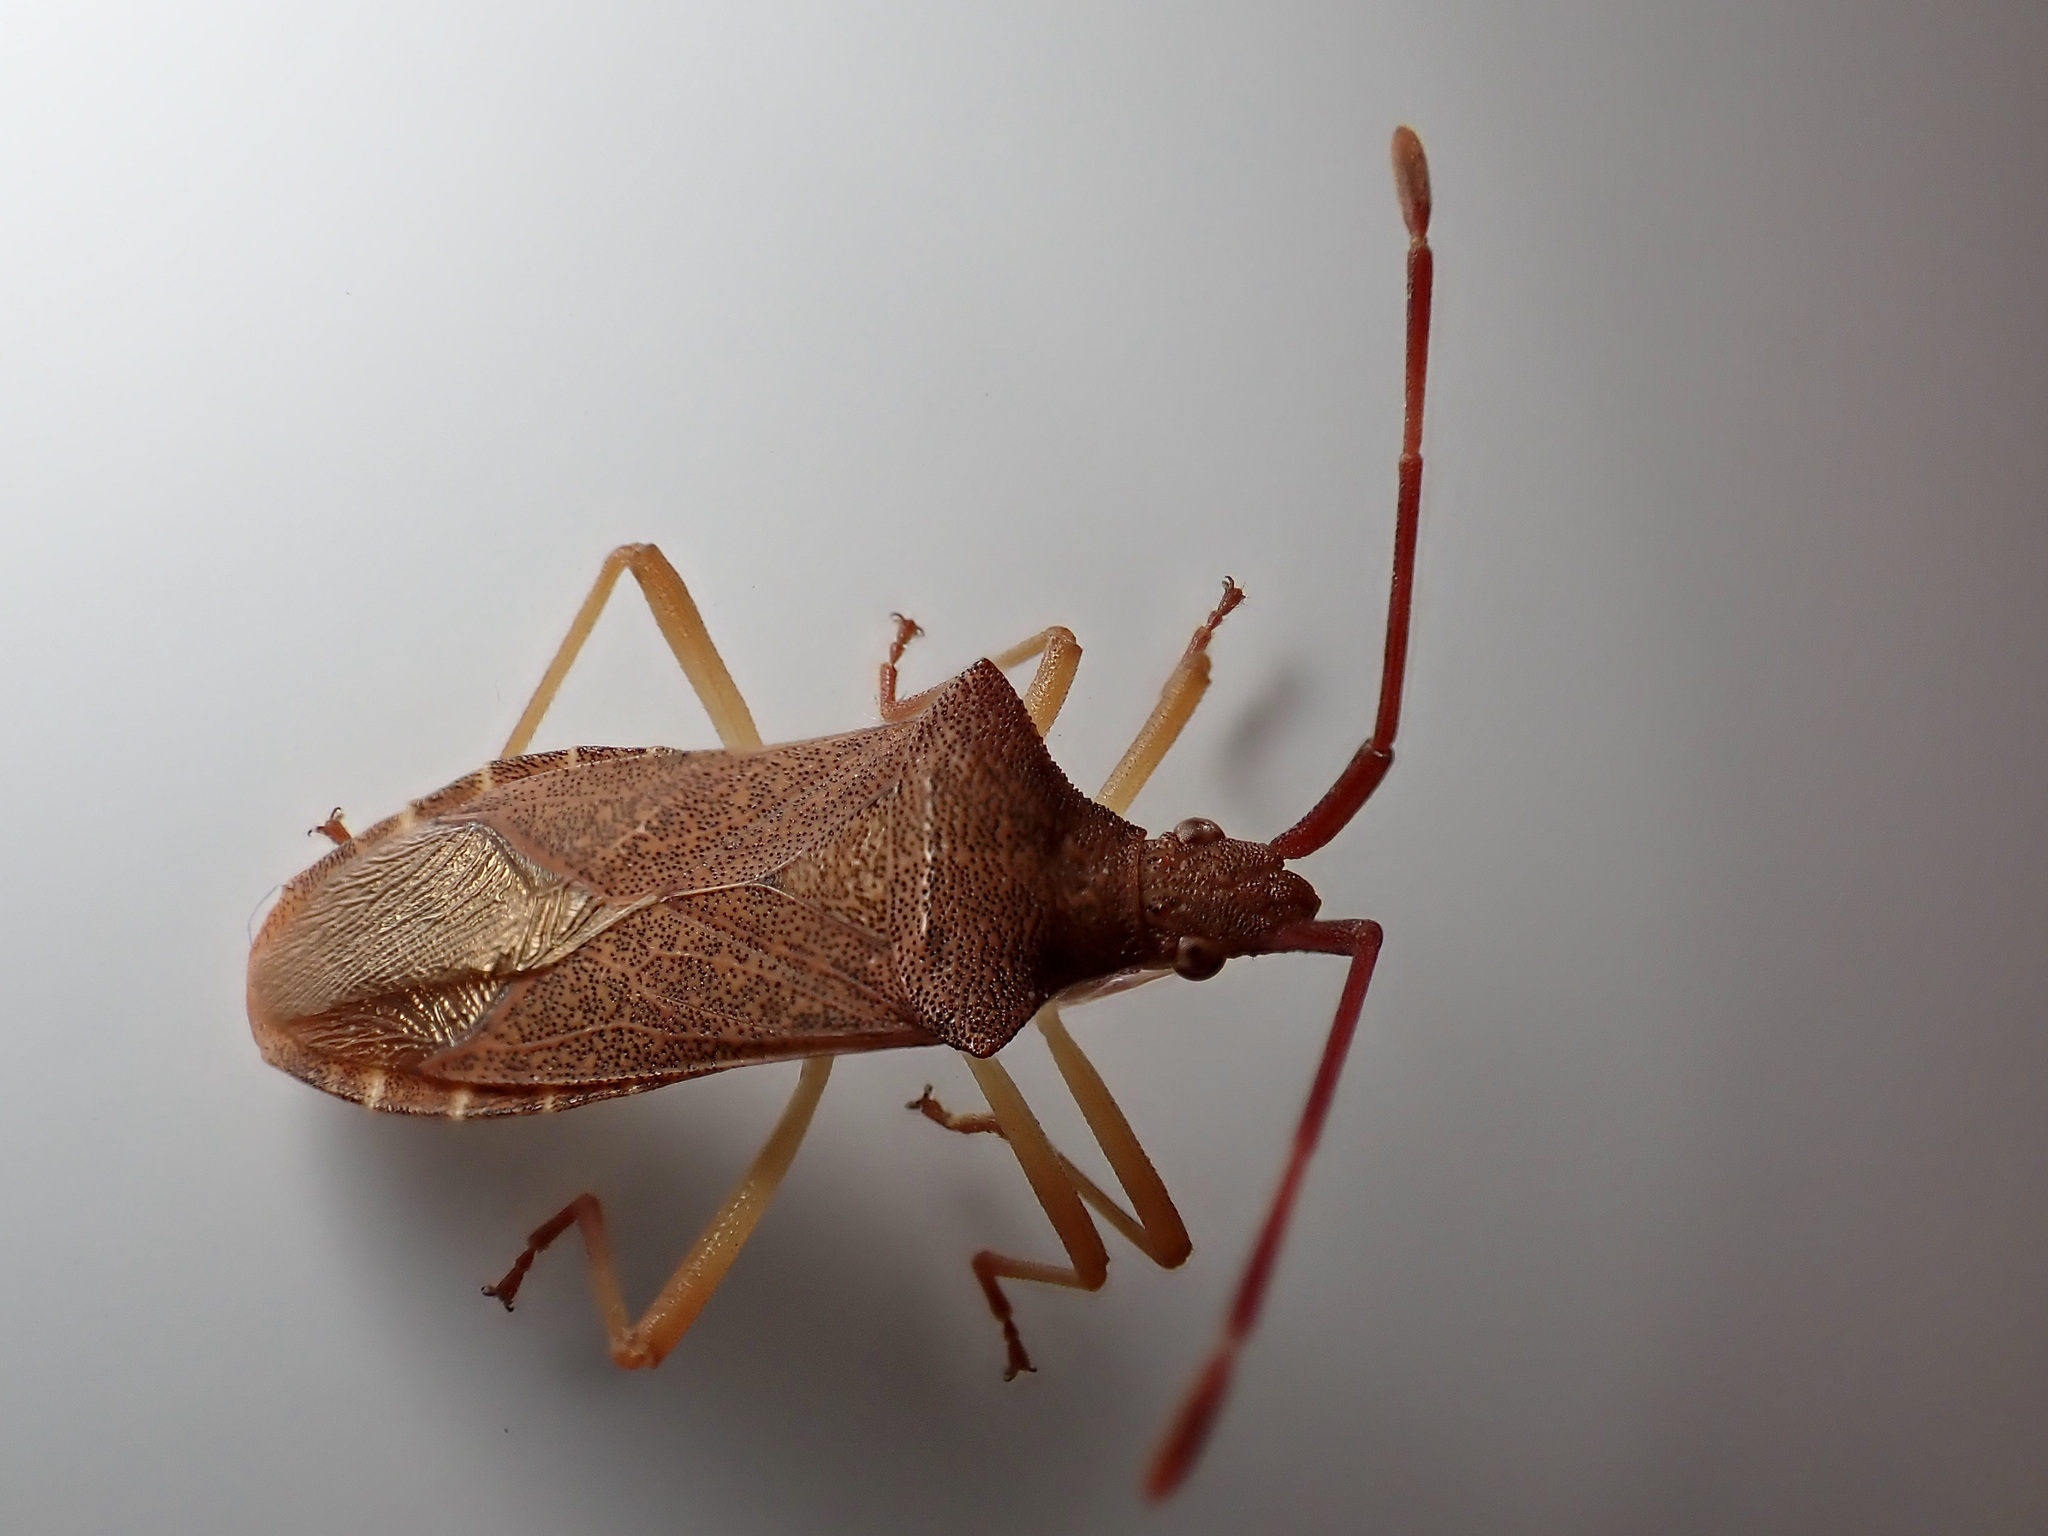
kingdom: Animalia
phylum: Arthropoda
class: Insecta
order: Hemiptera
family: Coreidae
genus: Gonocerus
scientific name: Gonocerus acuteangulatus
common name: Box bug
